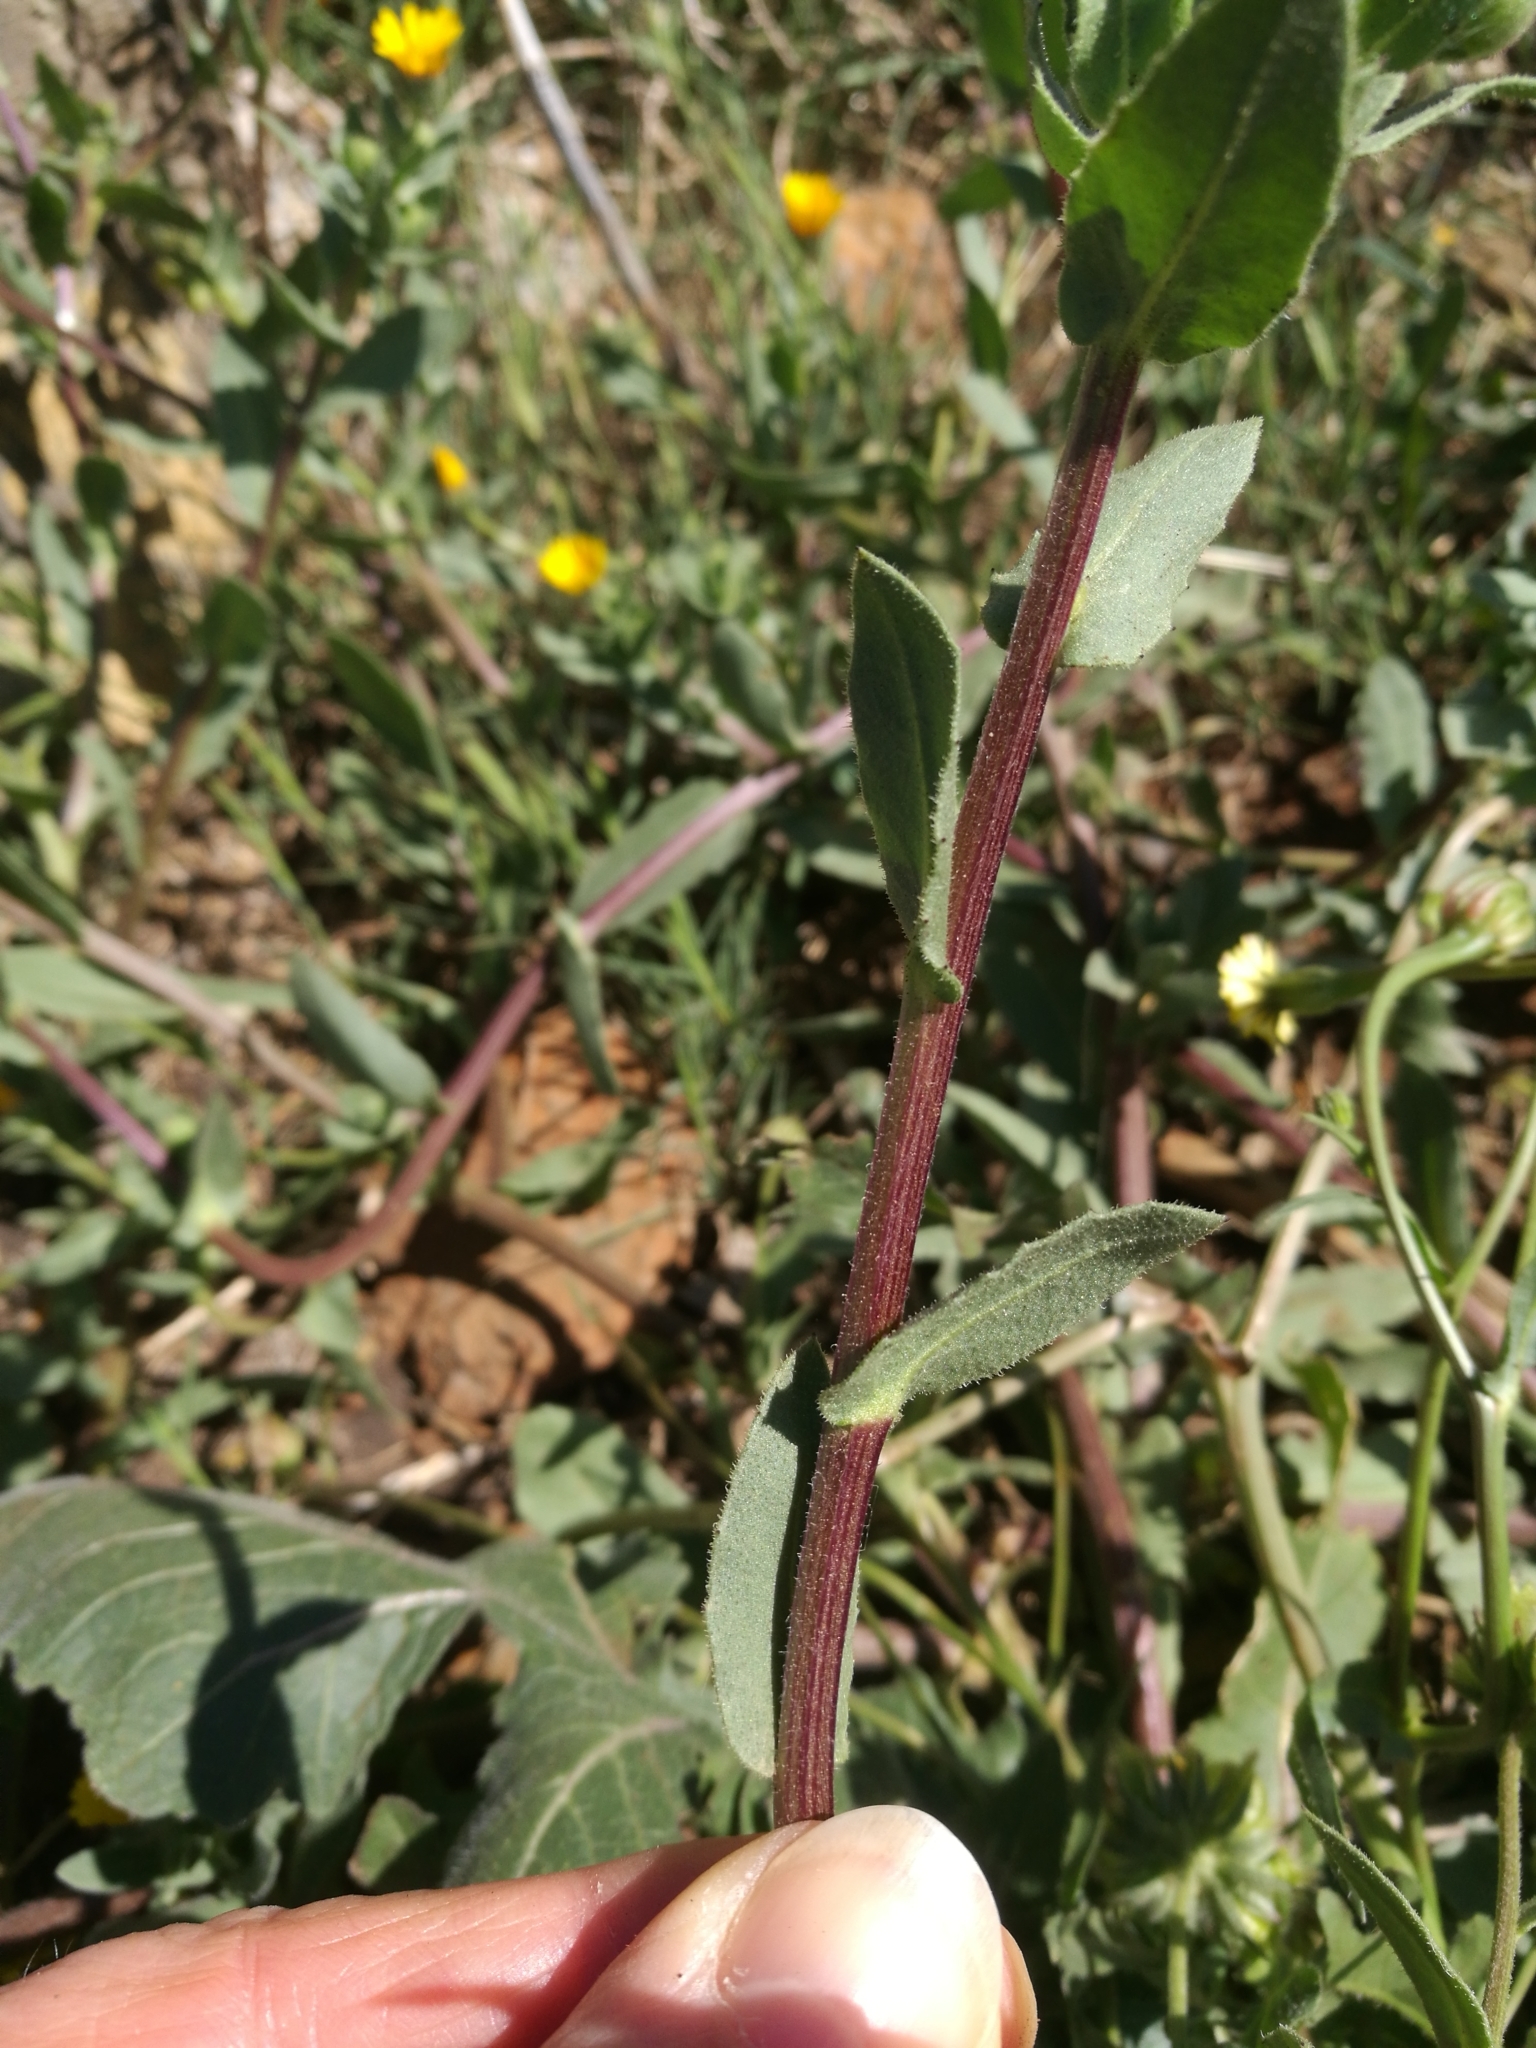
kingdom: Plantae
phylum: Tracheophyta
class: Magnoliopsida
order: Asterales
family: Asteraceae
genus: Calendula
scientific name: Calendula arvensis
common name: Field marigold
